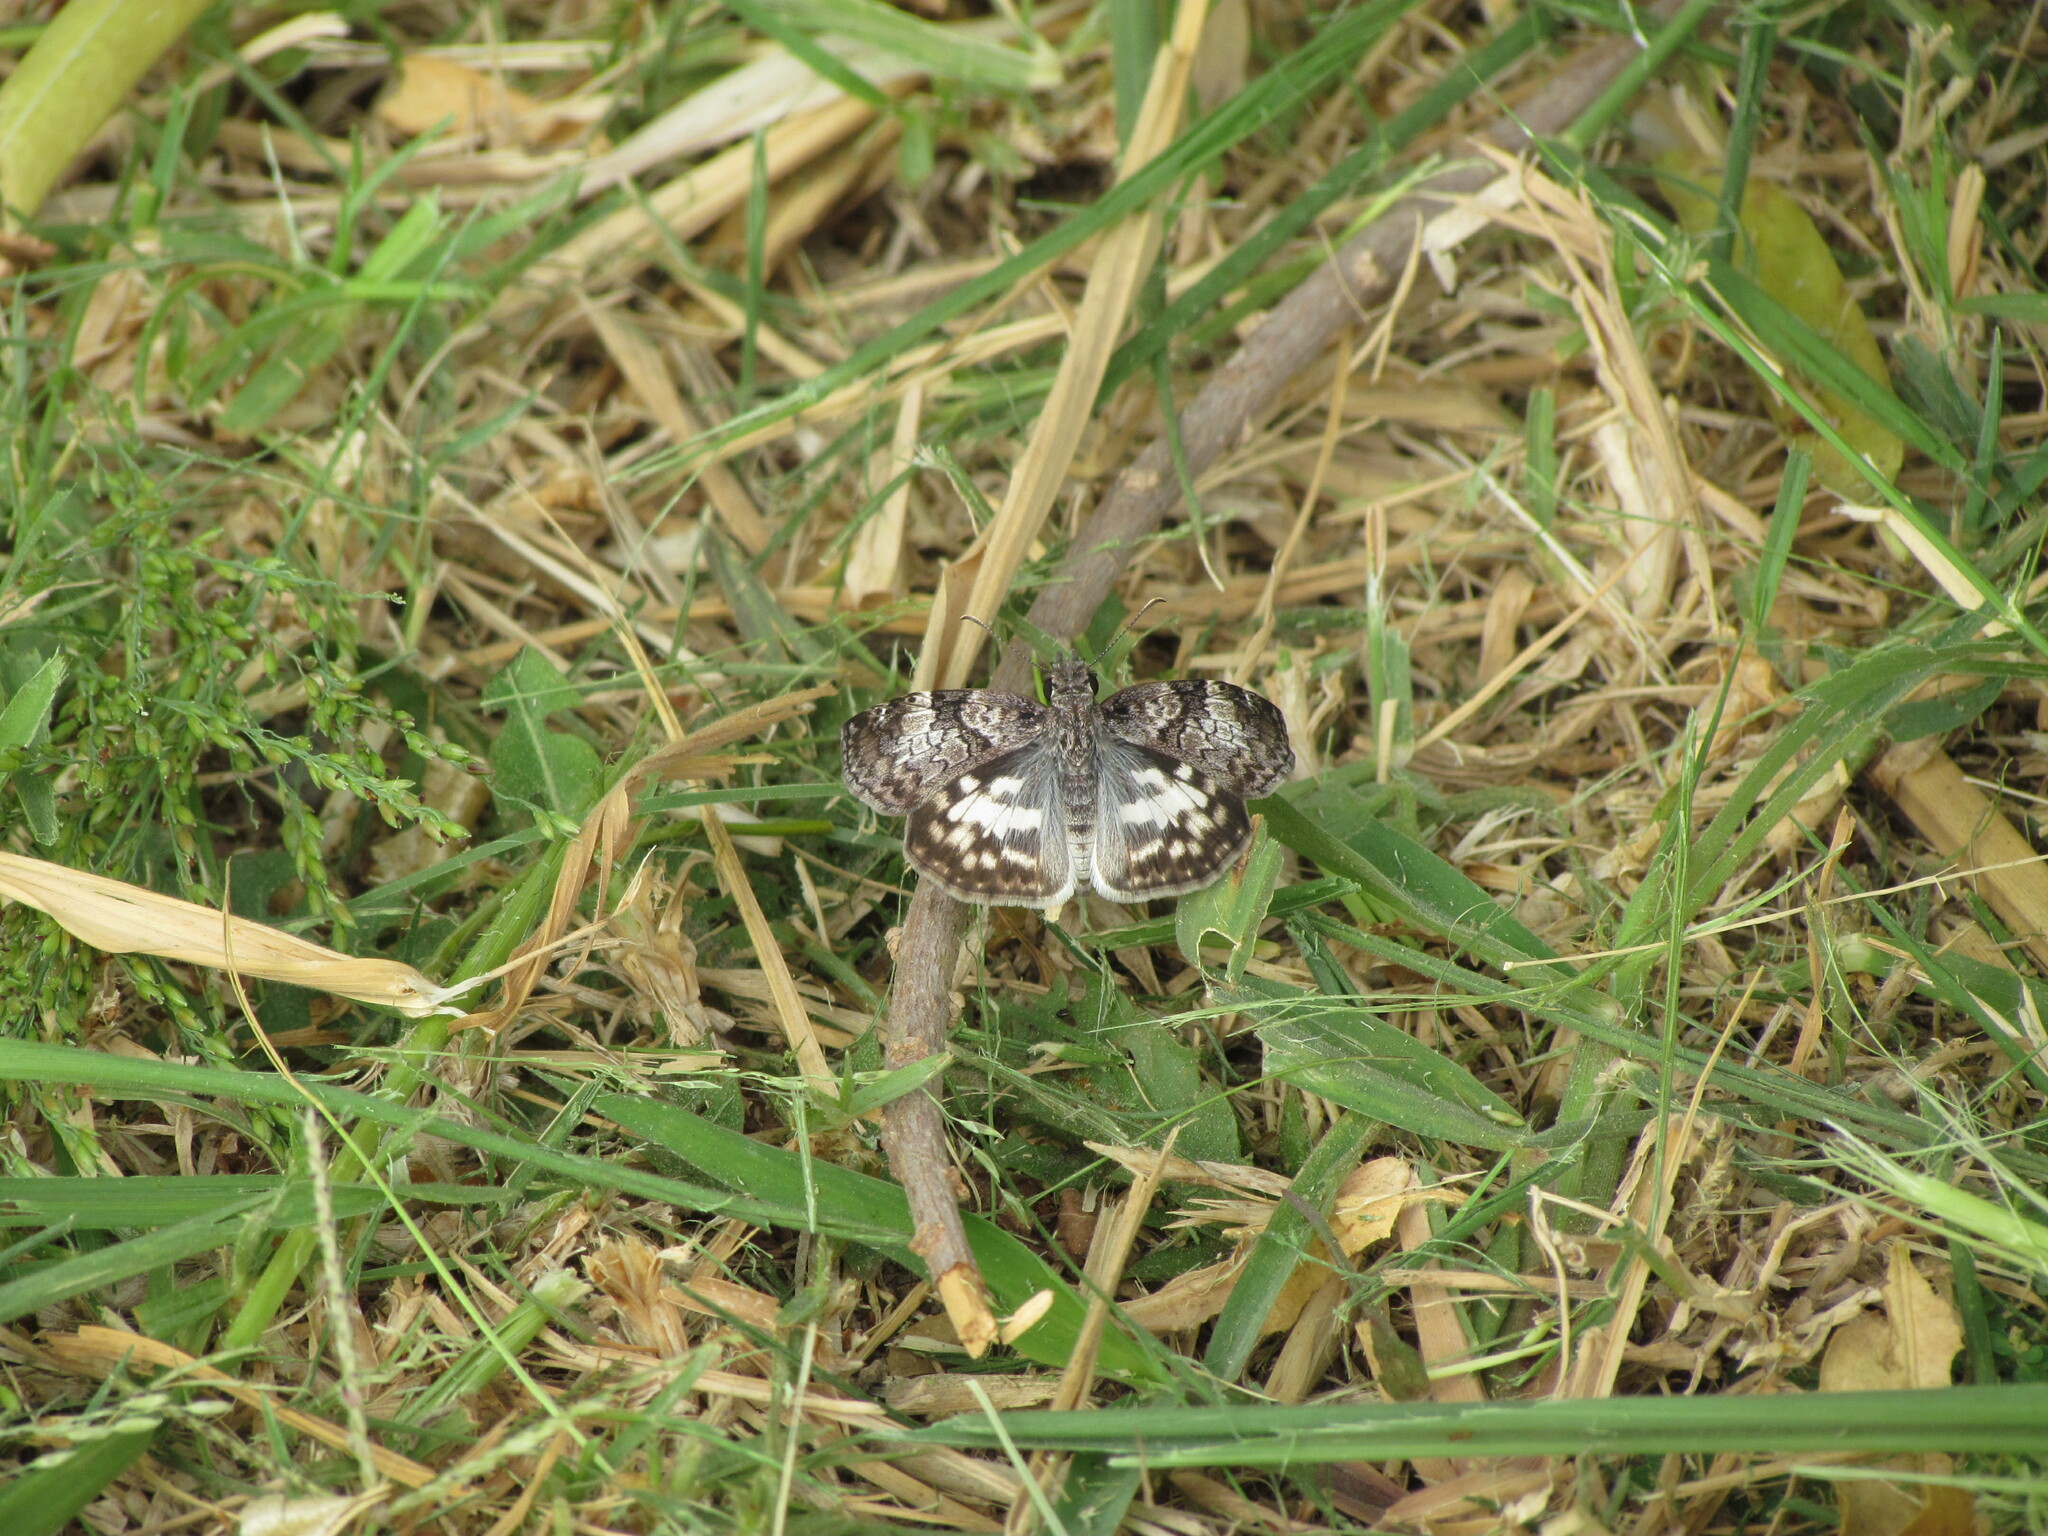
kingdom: Animalia
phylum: Arthropoda
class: Insecta
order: Lepidoptera
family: Hesperiidae
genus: Chiomara
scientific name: Chiomara asychis
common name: White-patterned skipper
